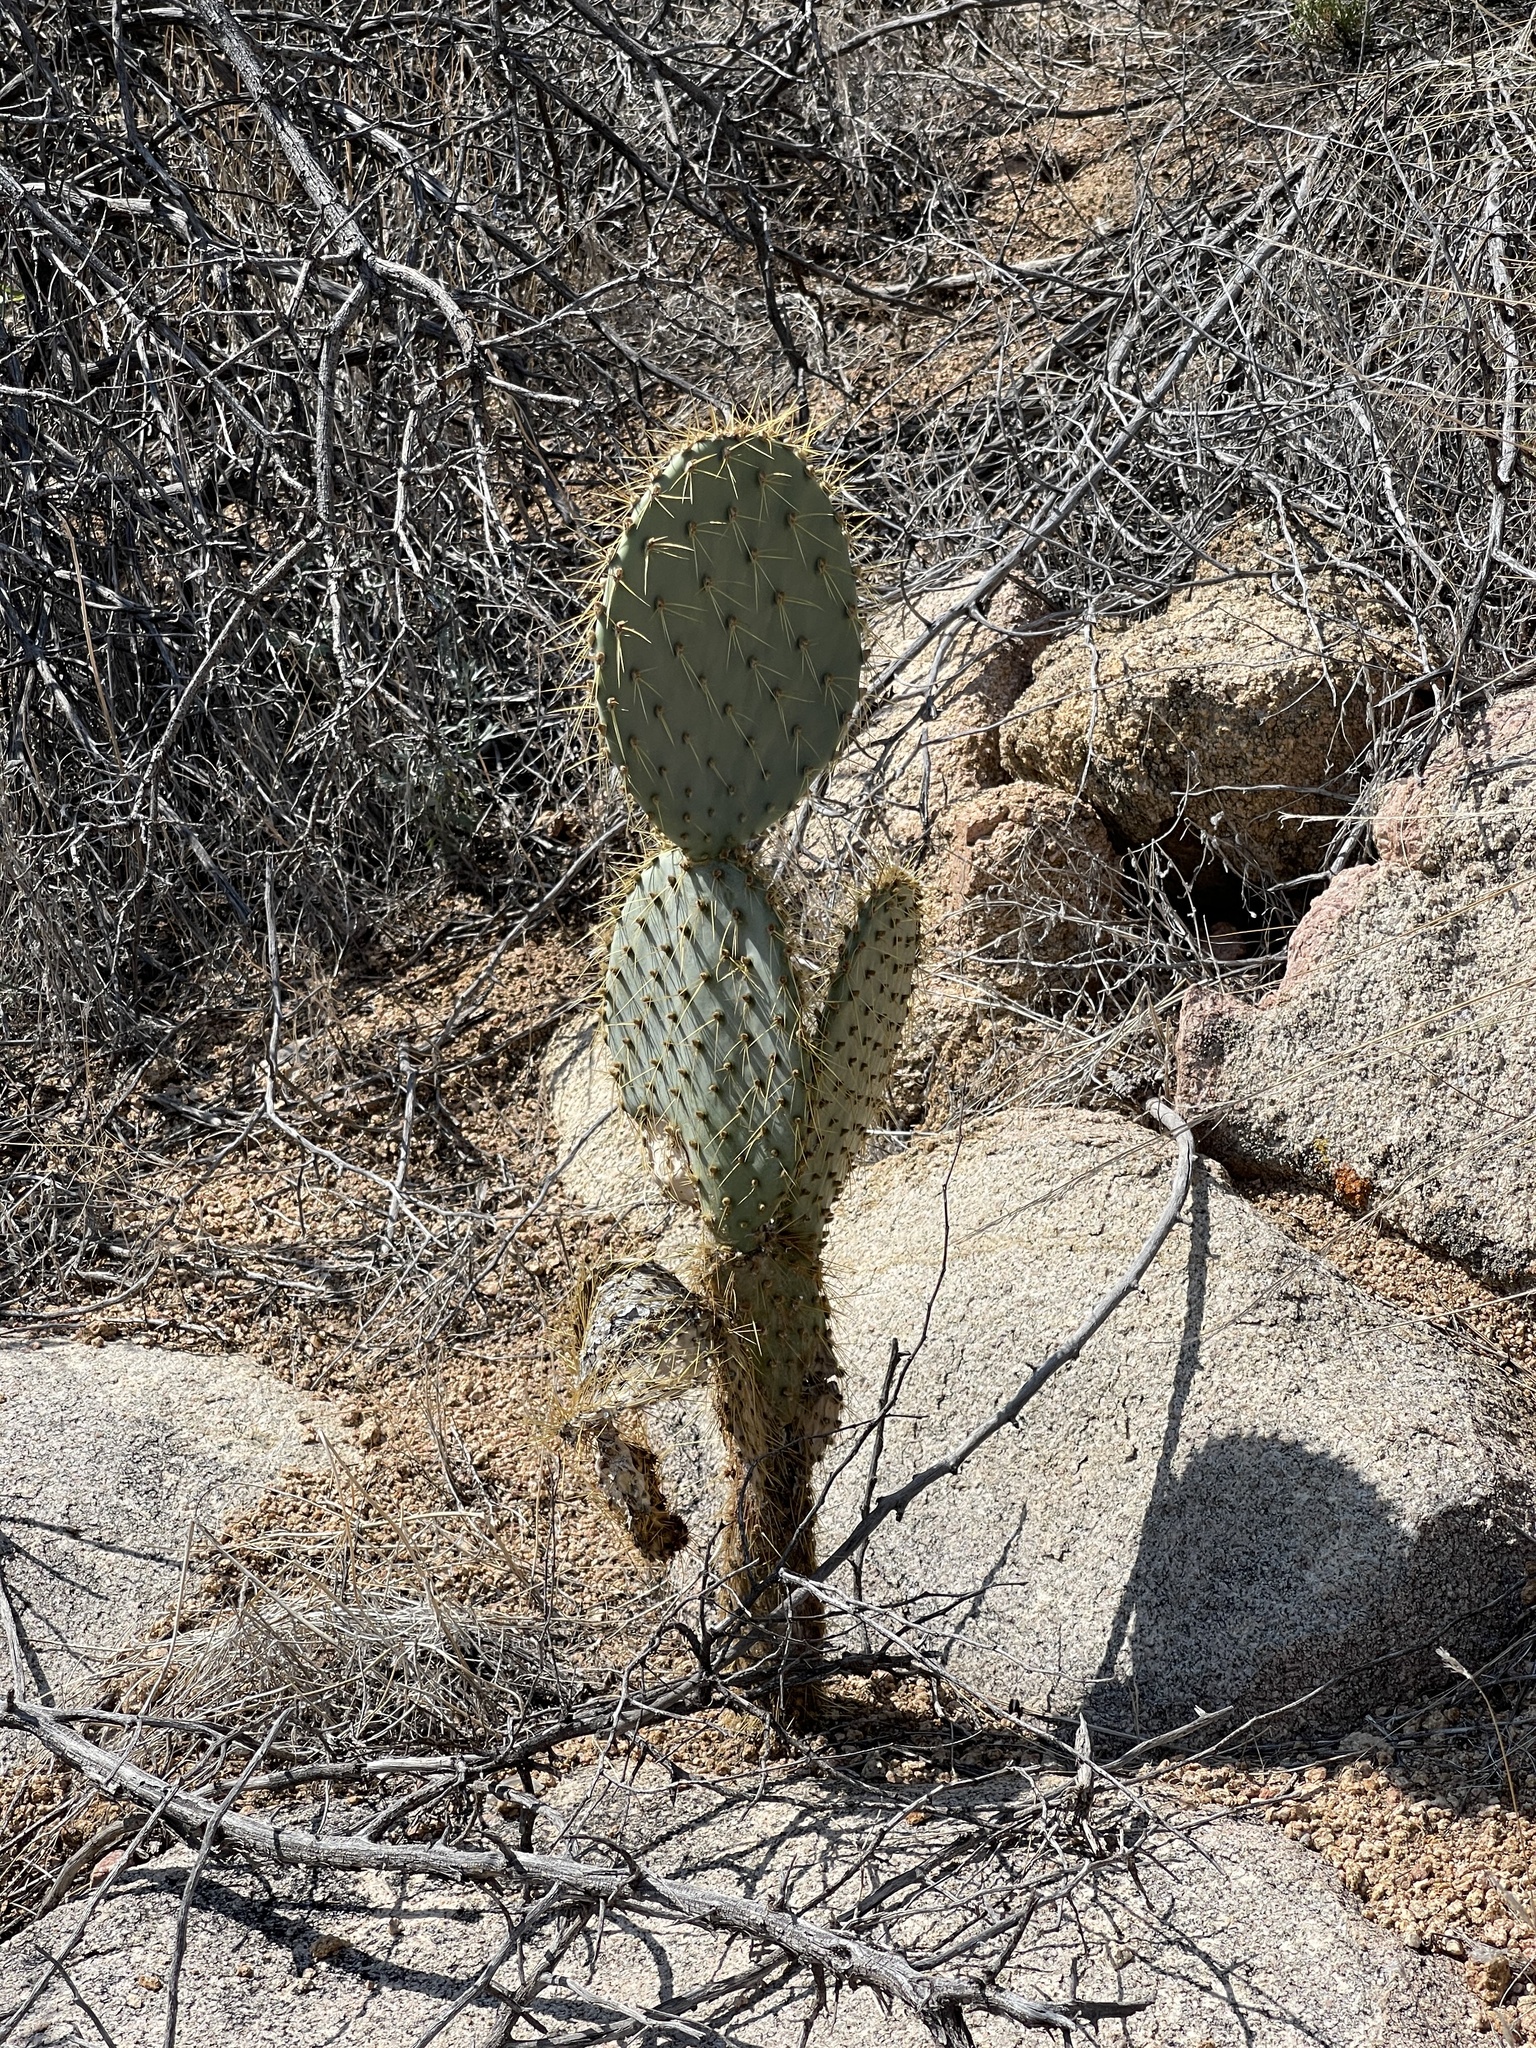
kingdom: Plantae
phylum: Tracheophyta
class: Magnoliopsida
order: Caryophyllales
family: Cactaceae
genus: Opuntia
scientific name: Opuntia chlorotica
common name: Dollar-joint prickly-pear
